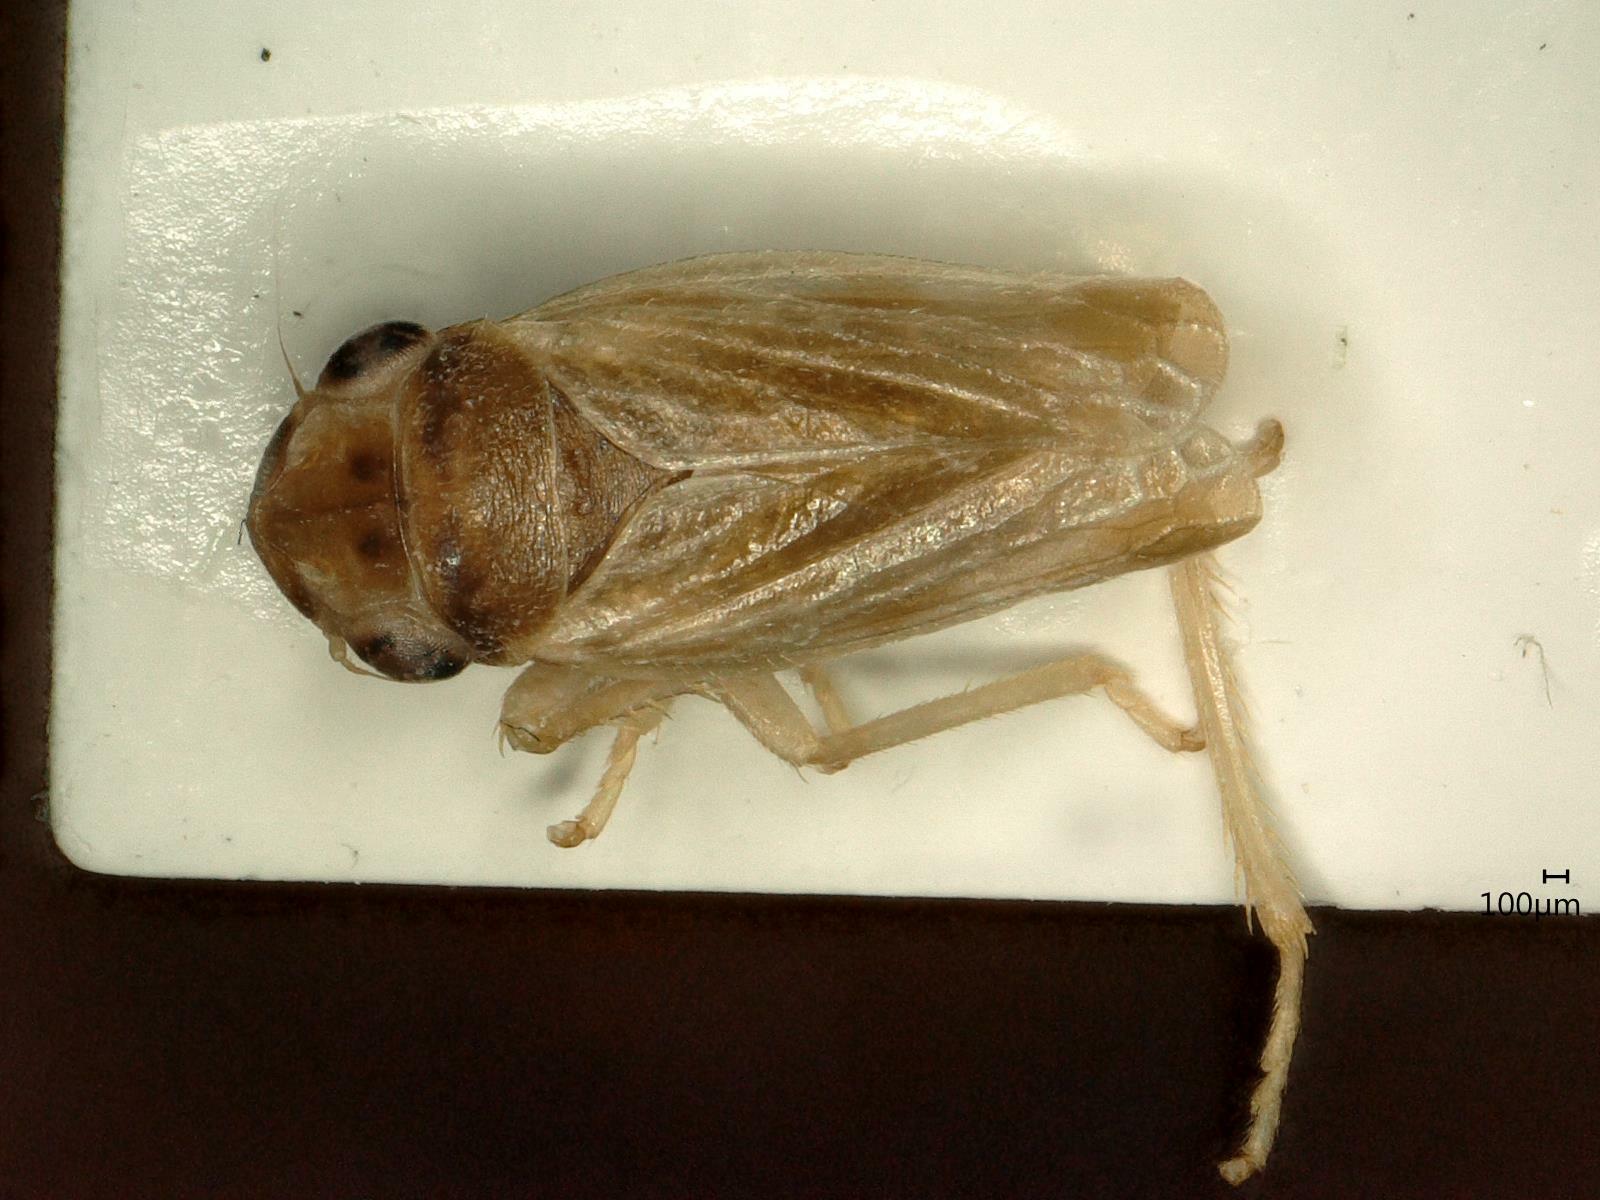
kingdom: Animalia
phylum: Arthropoda
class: Insecta
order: Hemiptera
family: Cicadellidae
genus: Evacanthus
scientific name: Evacanthus acuminatus
